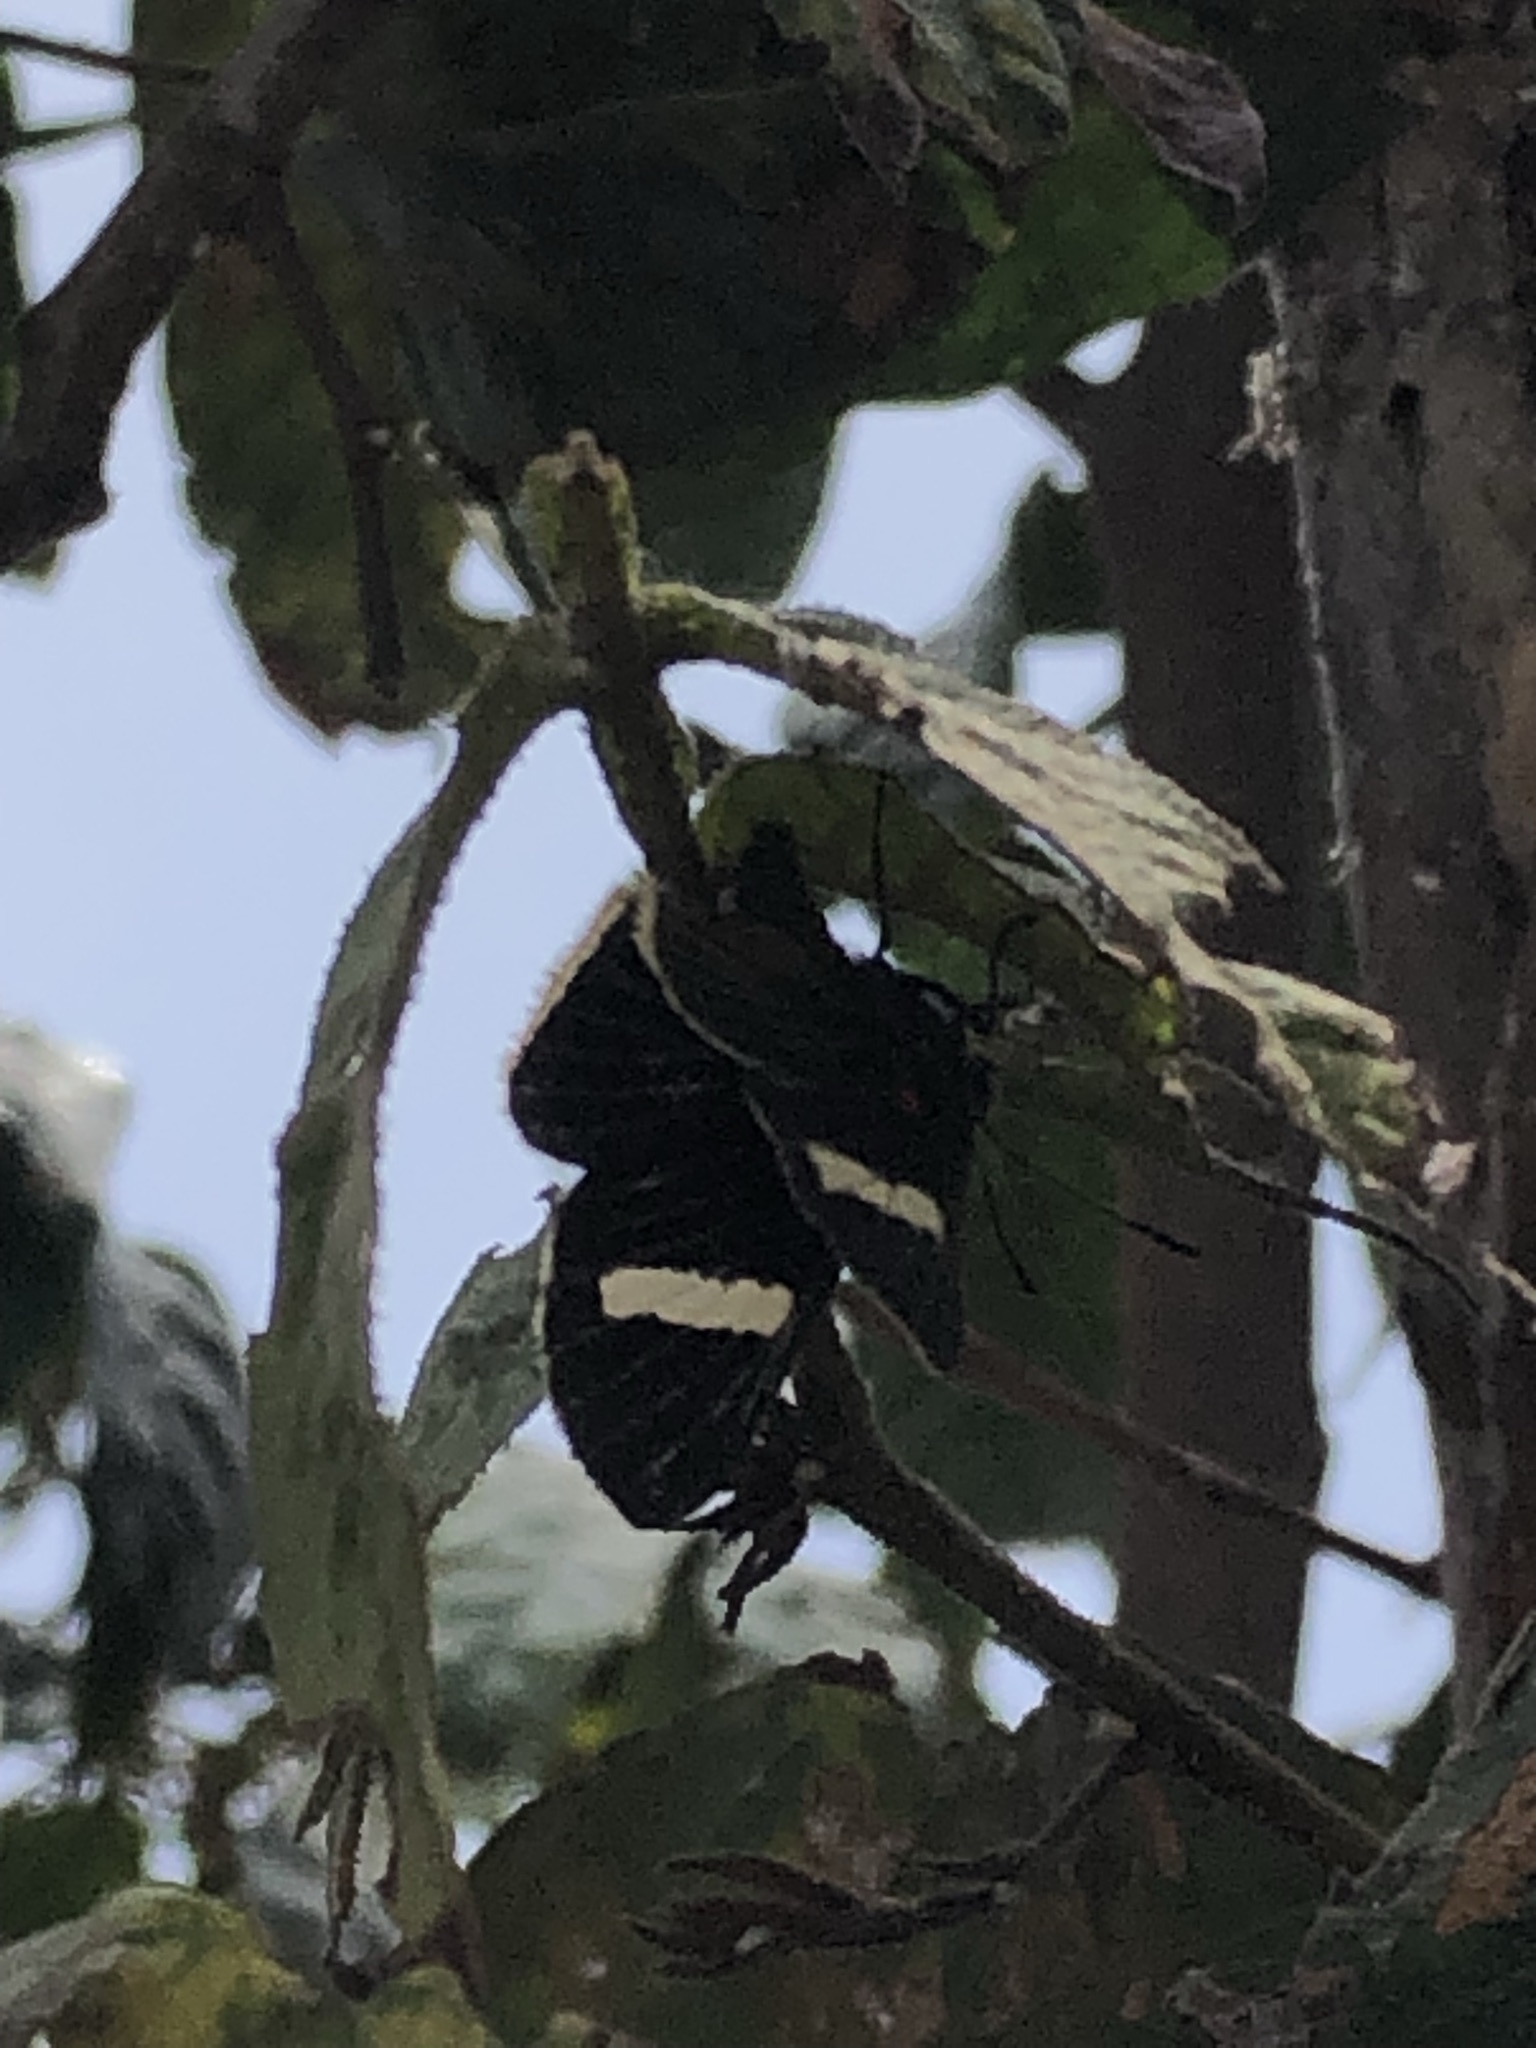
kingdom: Animalia
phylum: Arthropoda
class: Insecta
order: Lepidoptera
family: Lycaenidae
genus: Melanis
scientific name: Melanis
